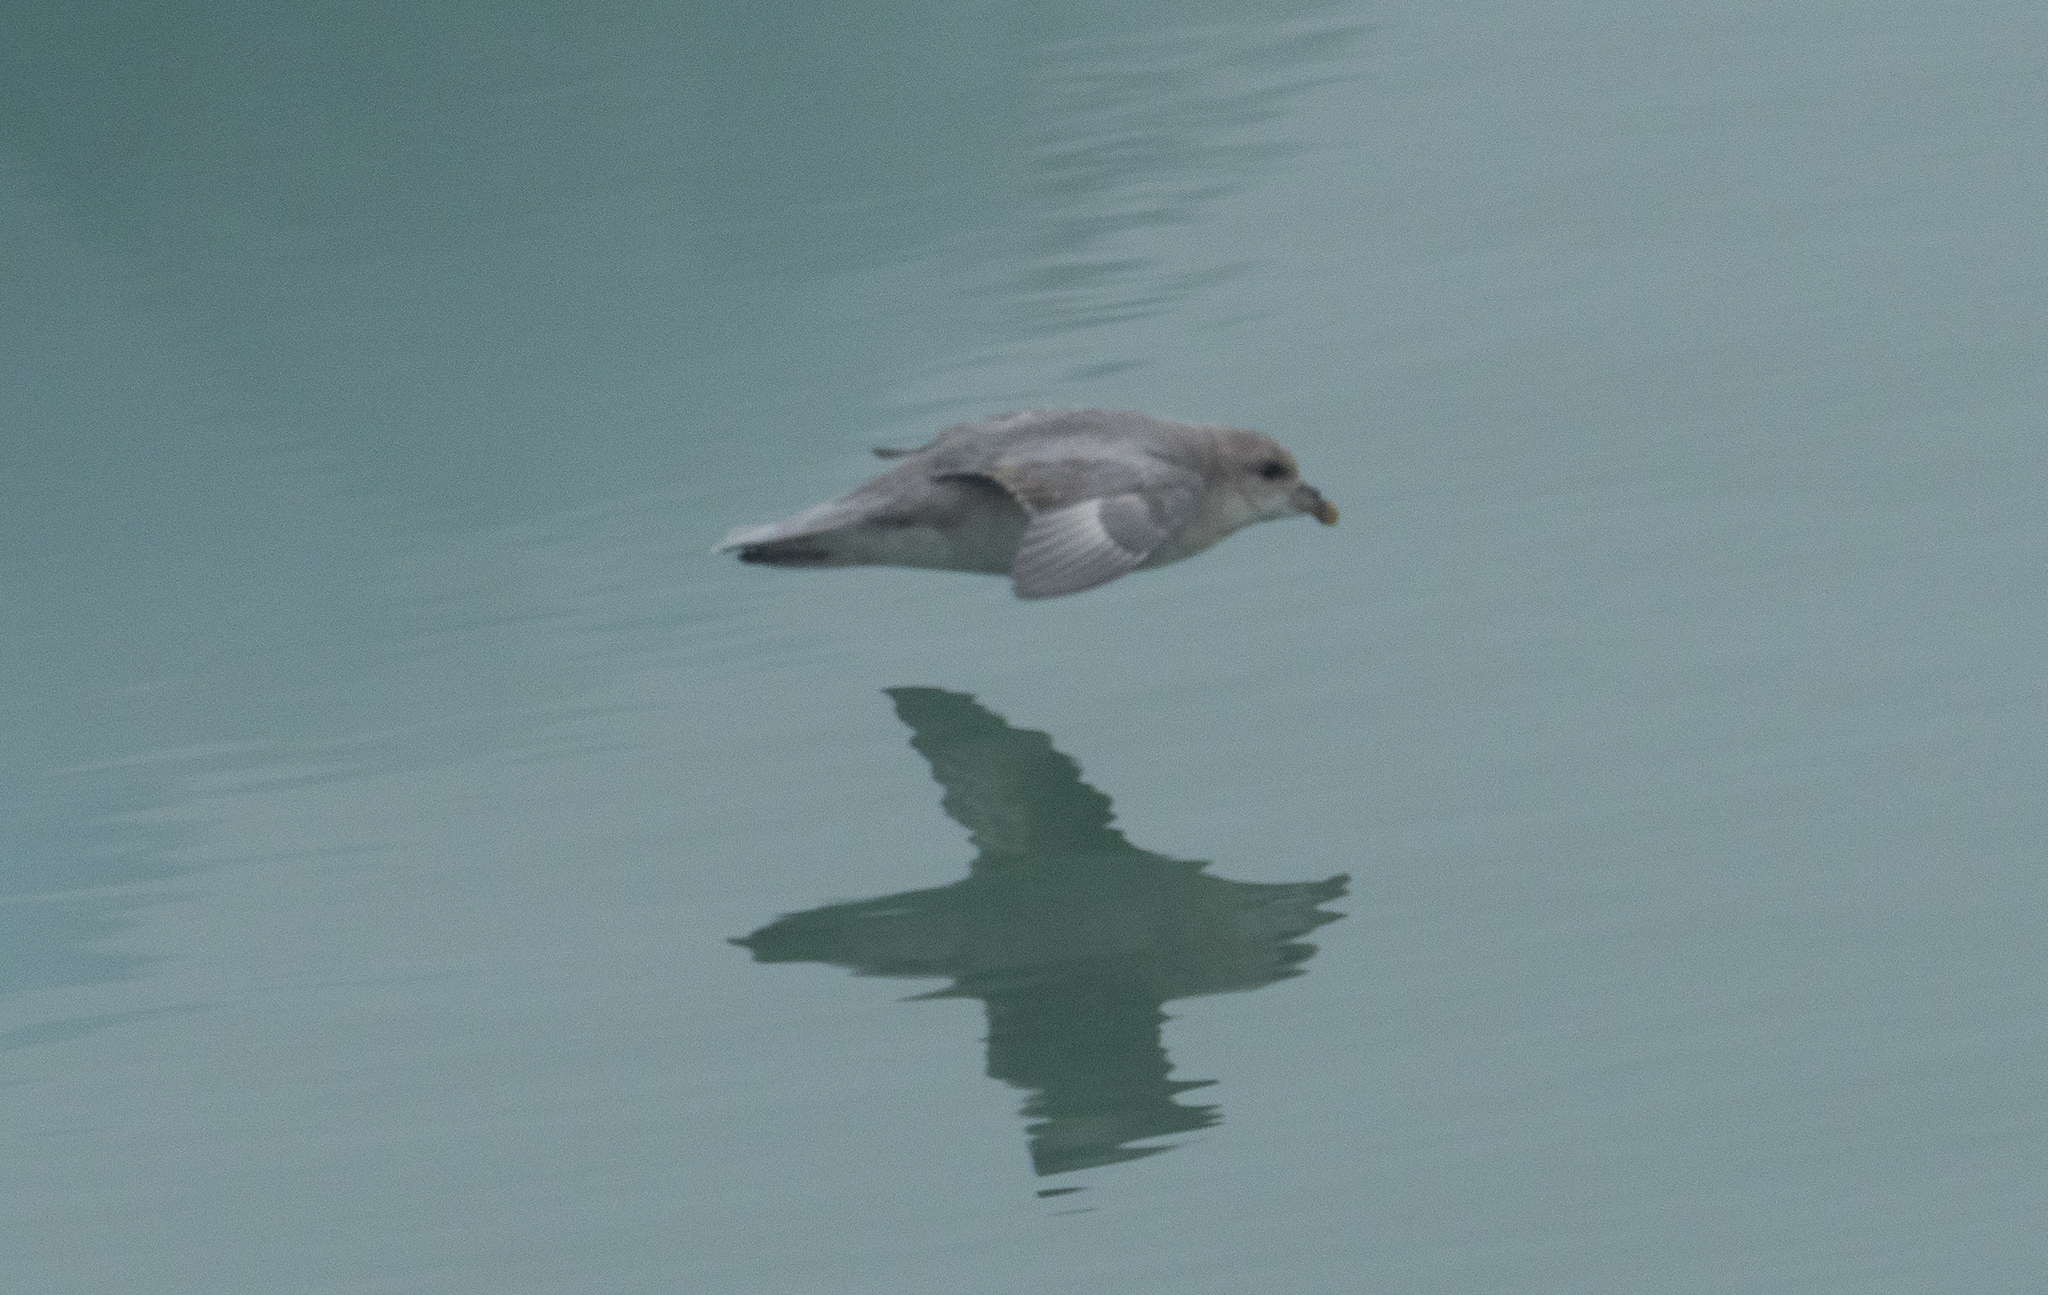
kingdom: Animalia
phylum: Chordata
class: Aves
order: Procellariiformes
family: Procellariidae
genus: Fulmarus
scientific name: Fulmarus glacialis
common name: Northern fulmar
